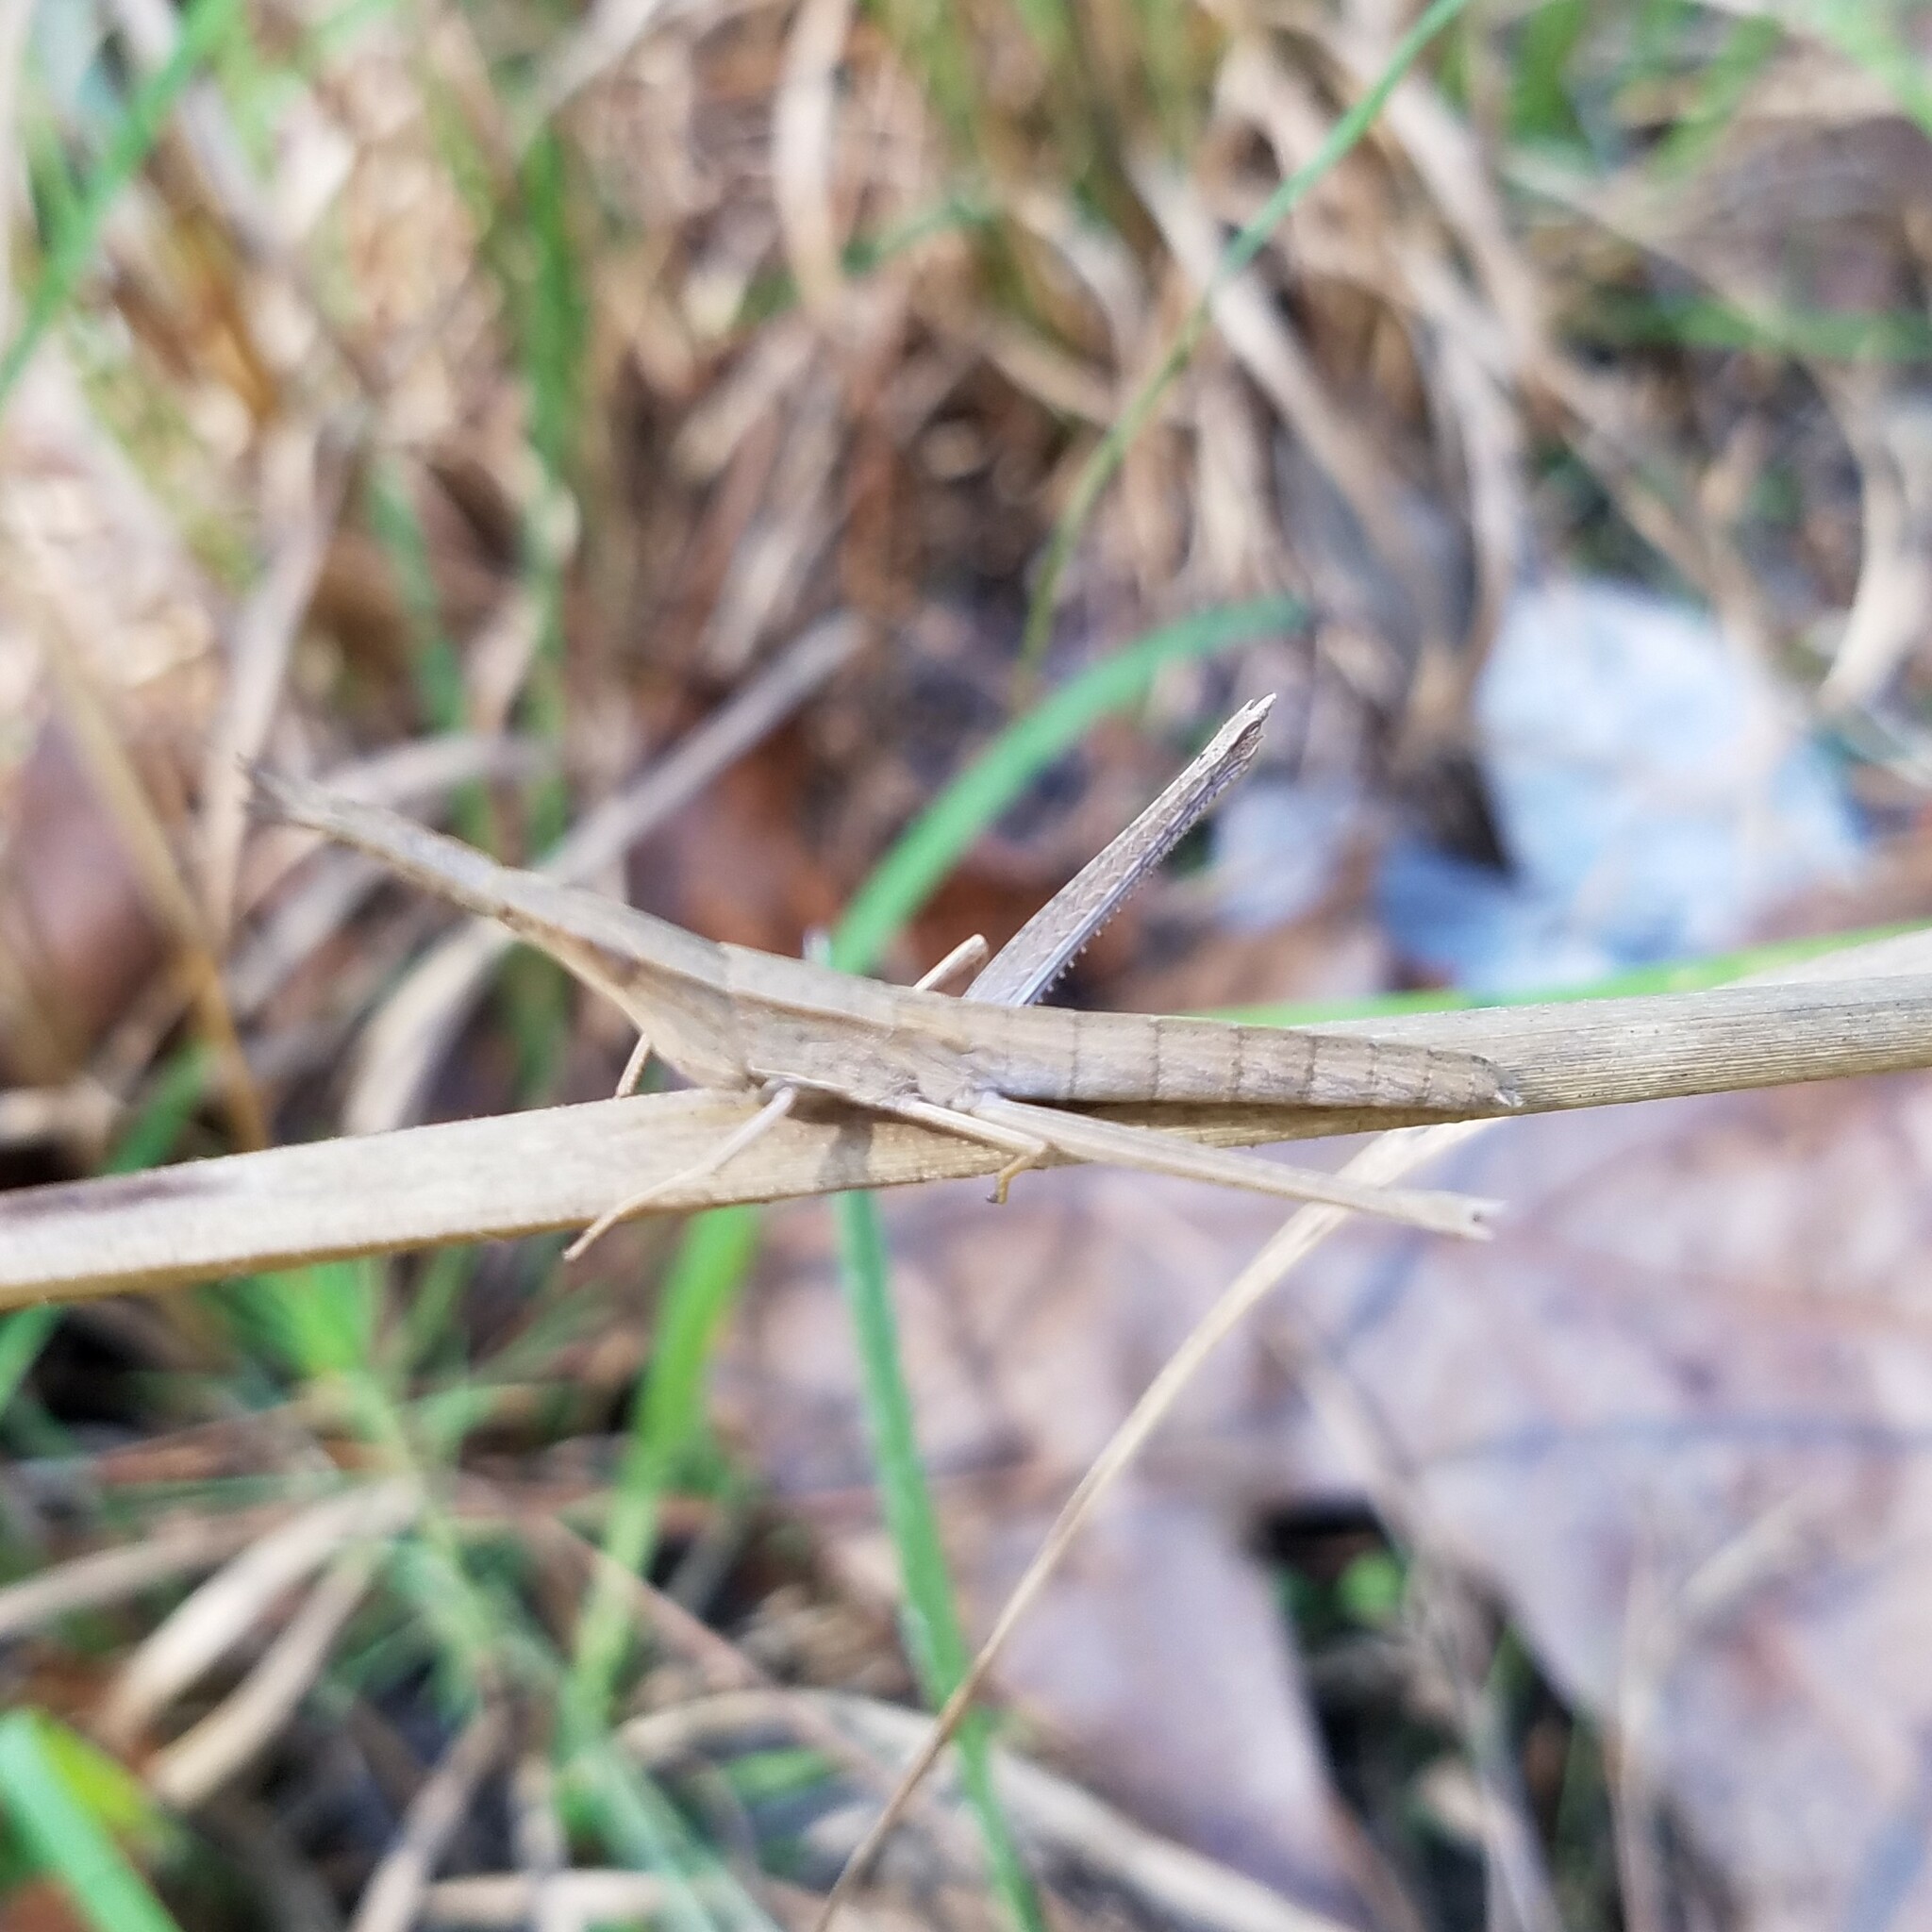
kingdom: Animalia
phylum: Arthropoda
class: Insecta
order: Orthoptera
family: Acrididae
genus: Achurum
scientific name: Achurum carinatum
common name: Long-headed toothpick grasshopper
